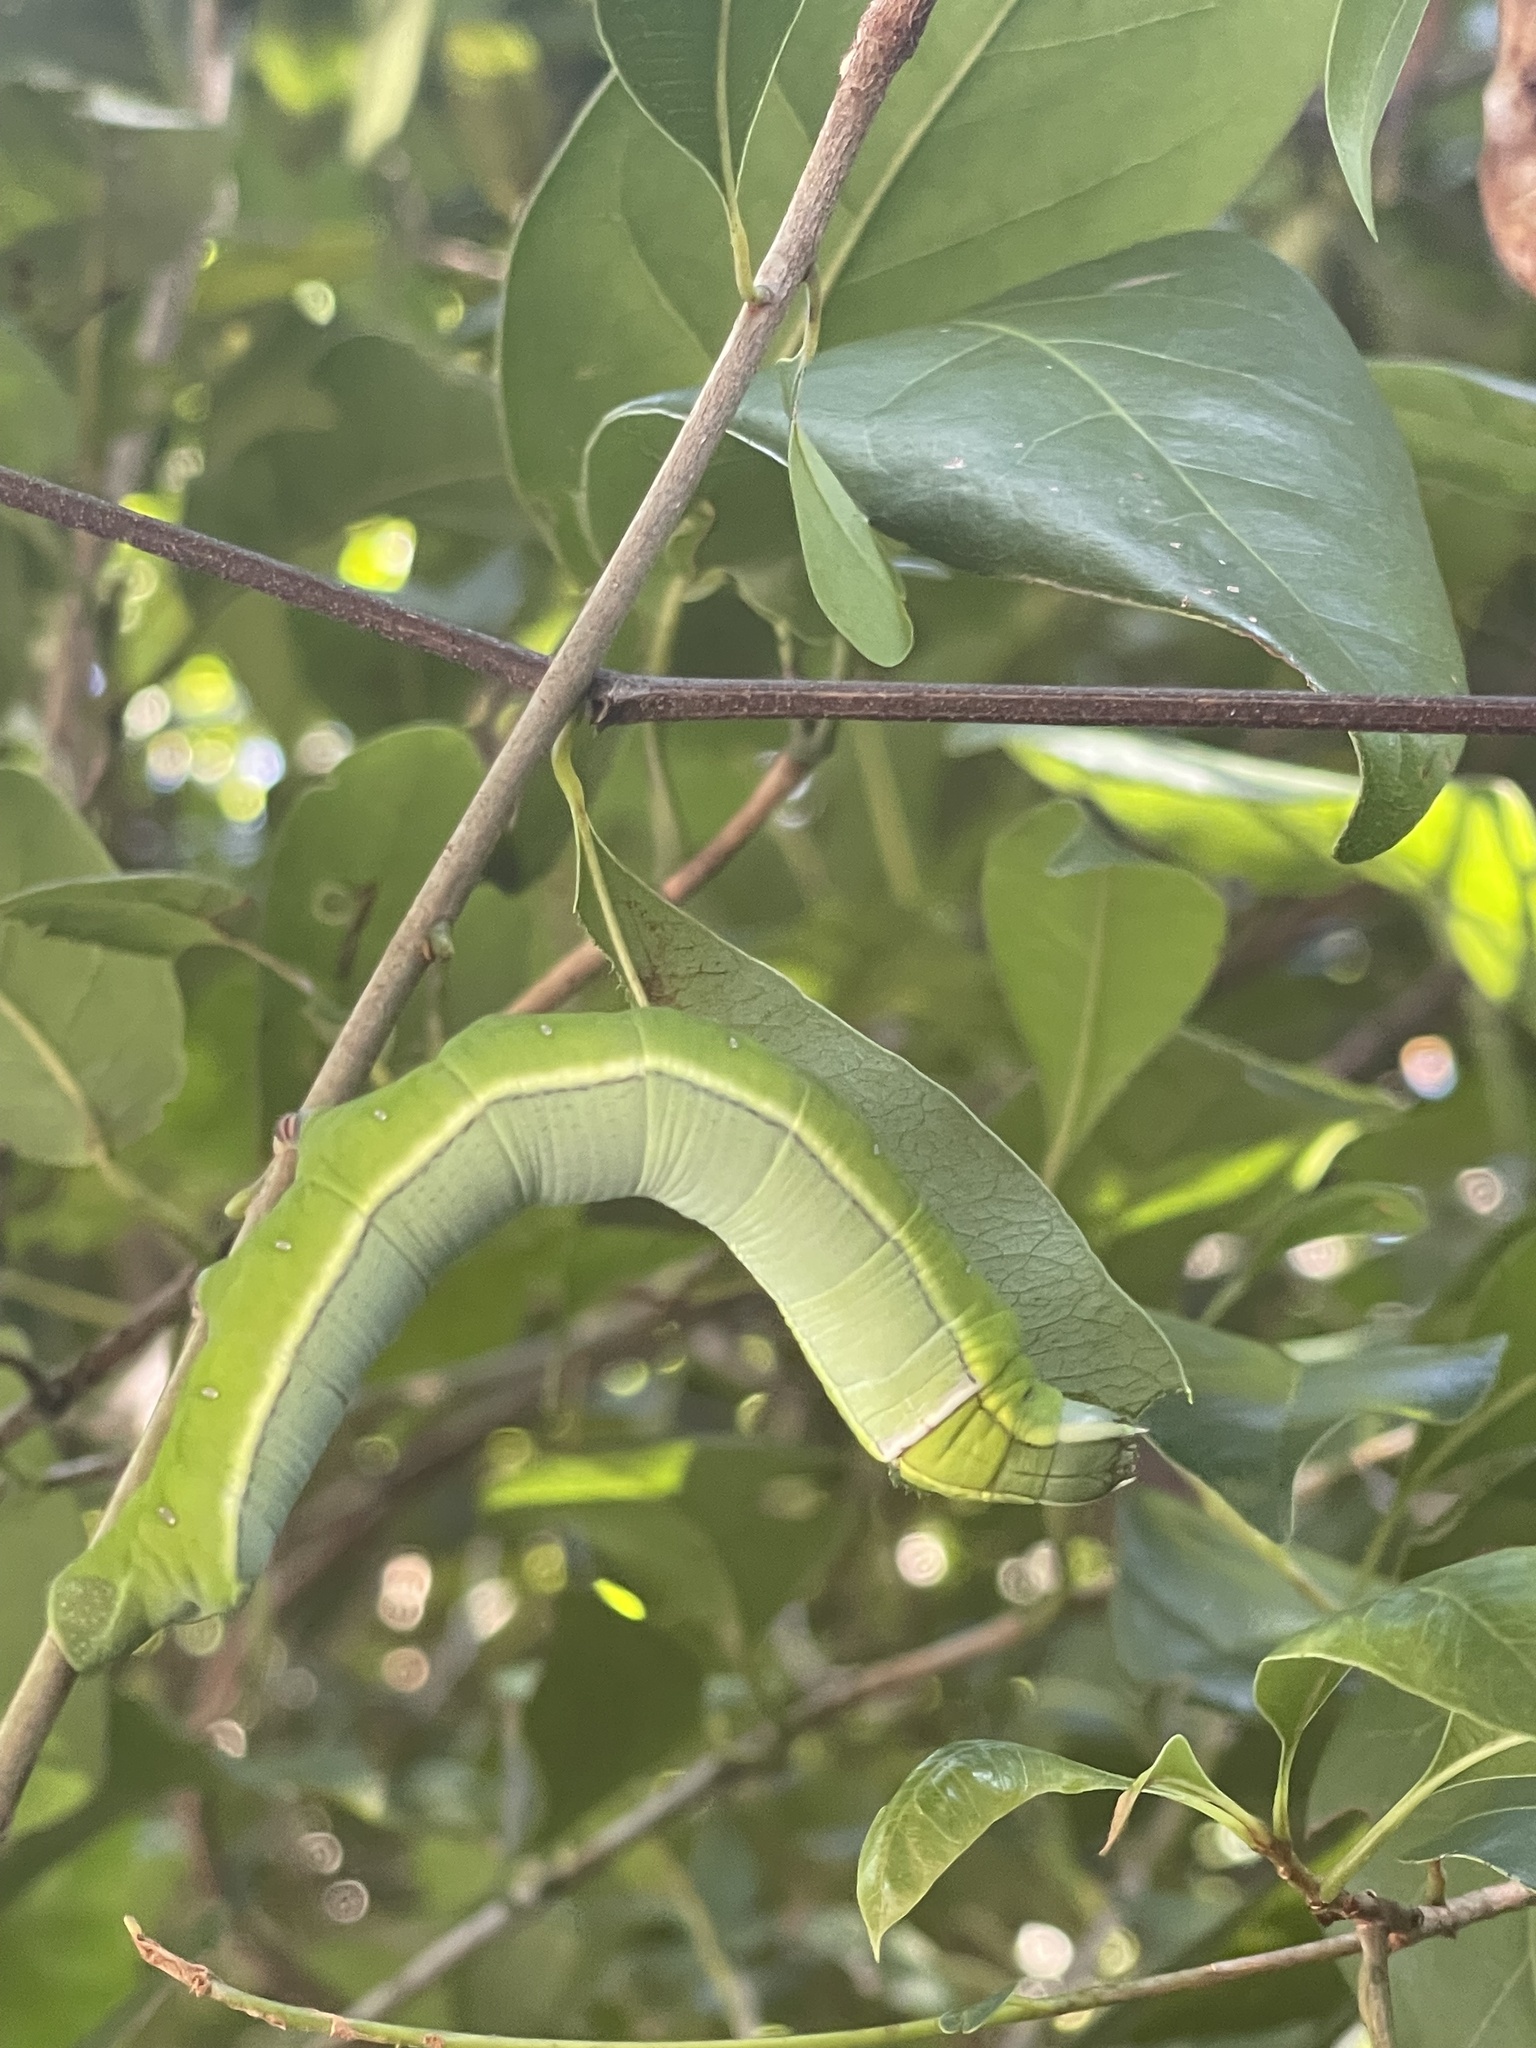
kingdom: Animalia
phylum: Arthropoda
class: Insecta
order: Lepidoptera
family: Sphingidae
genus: Erinnyis
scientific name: Erinnyis ello
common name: Ello sphinx
